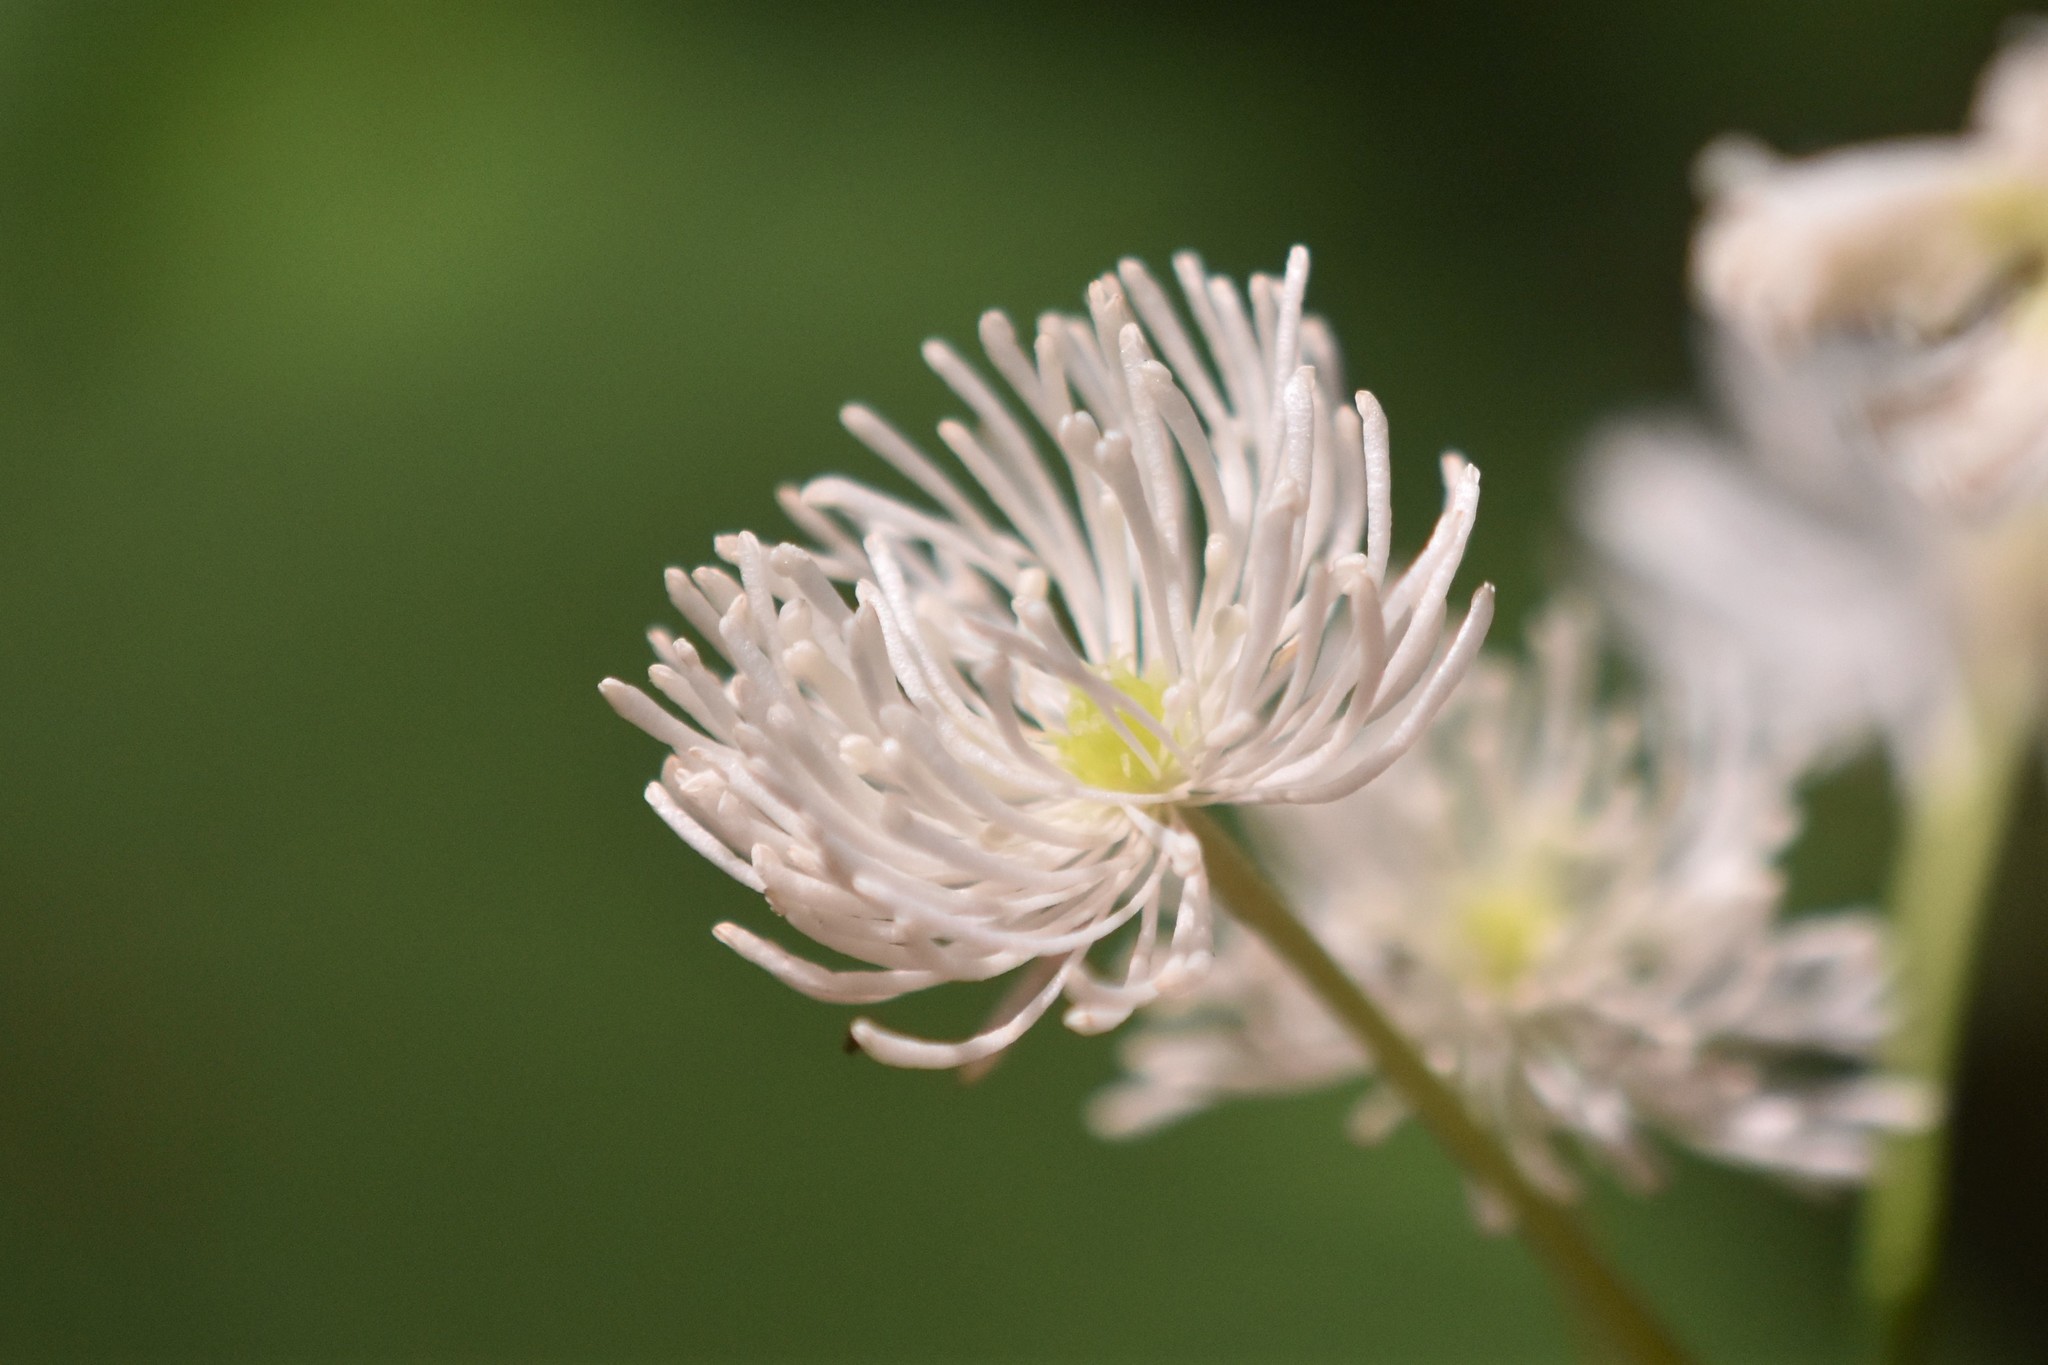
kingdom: Plantae
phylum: Tracheophyta
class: Magnoliopsida
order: Ranunculales
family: Ranunculaceae
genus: Trautvetteria
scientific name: Trautvetteria carolinensis
